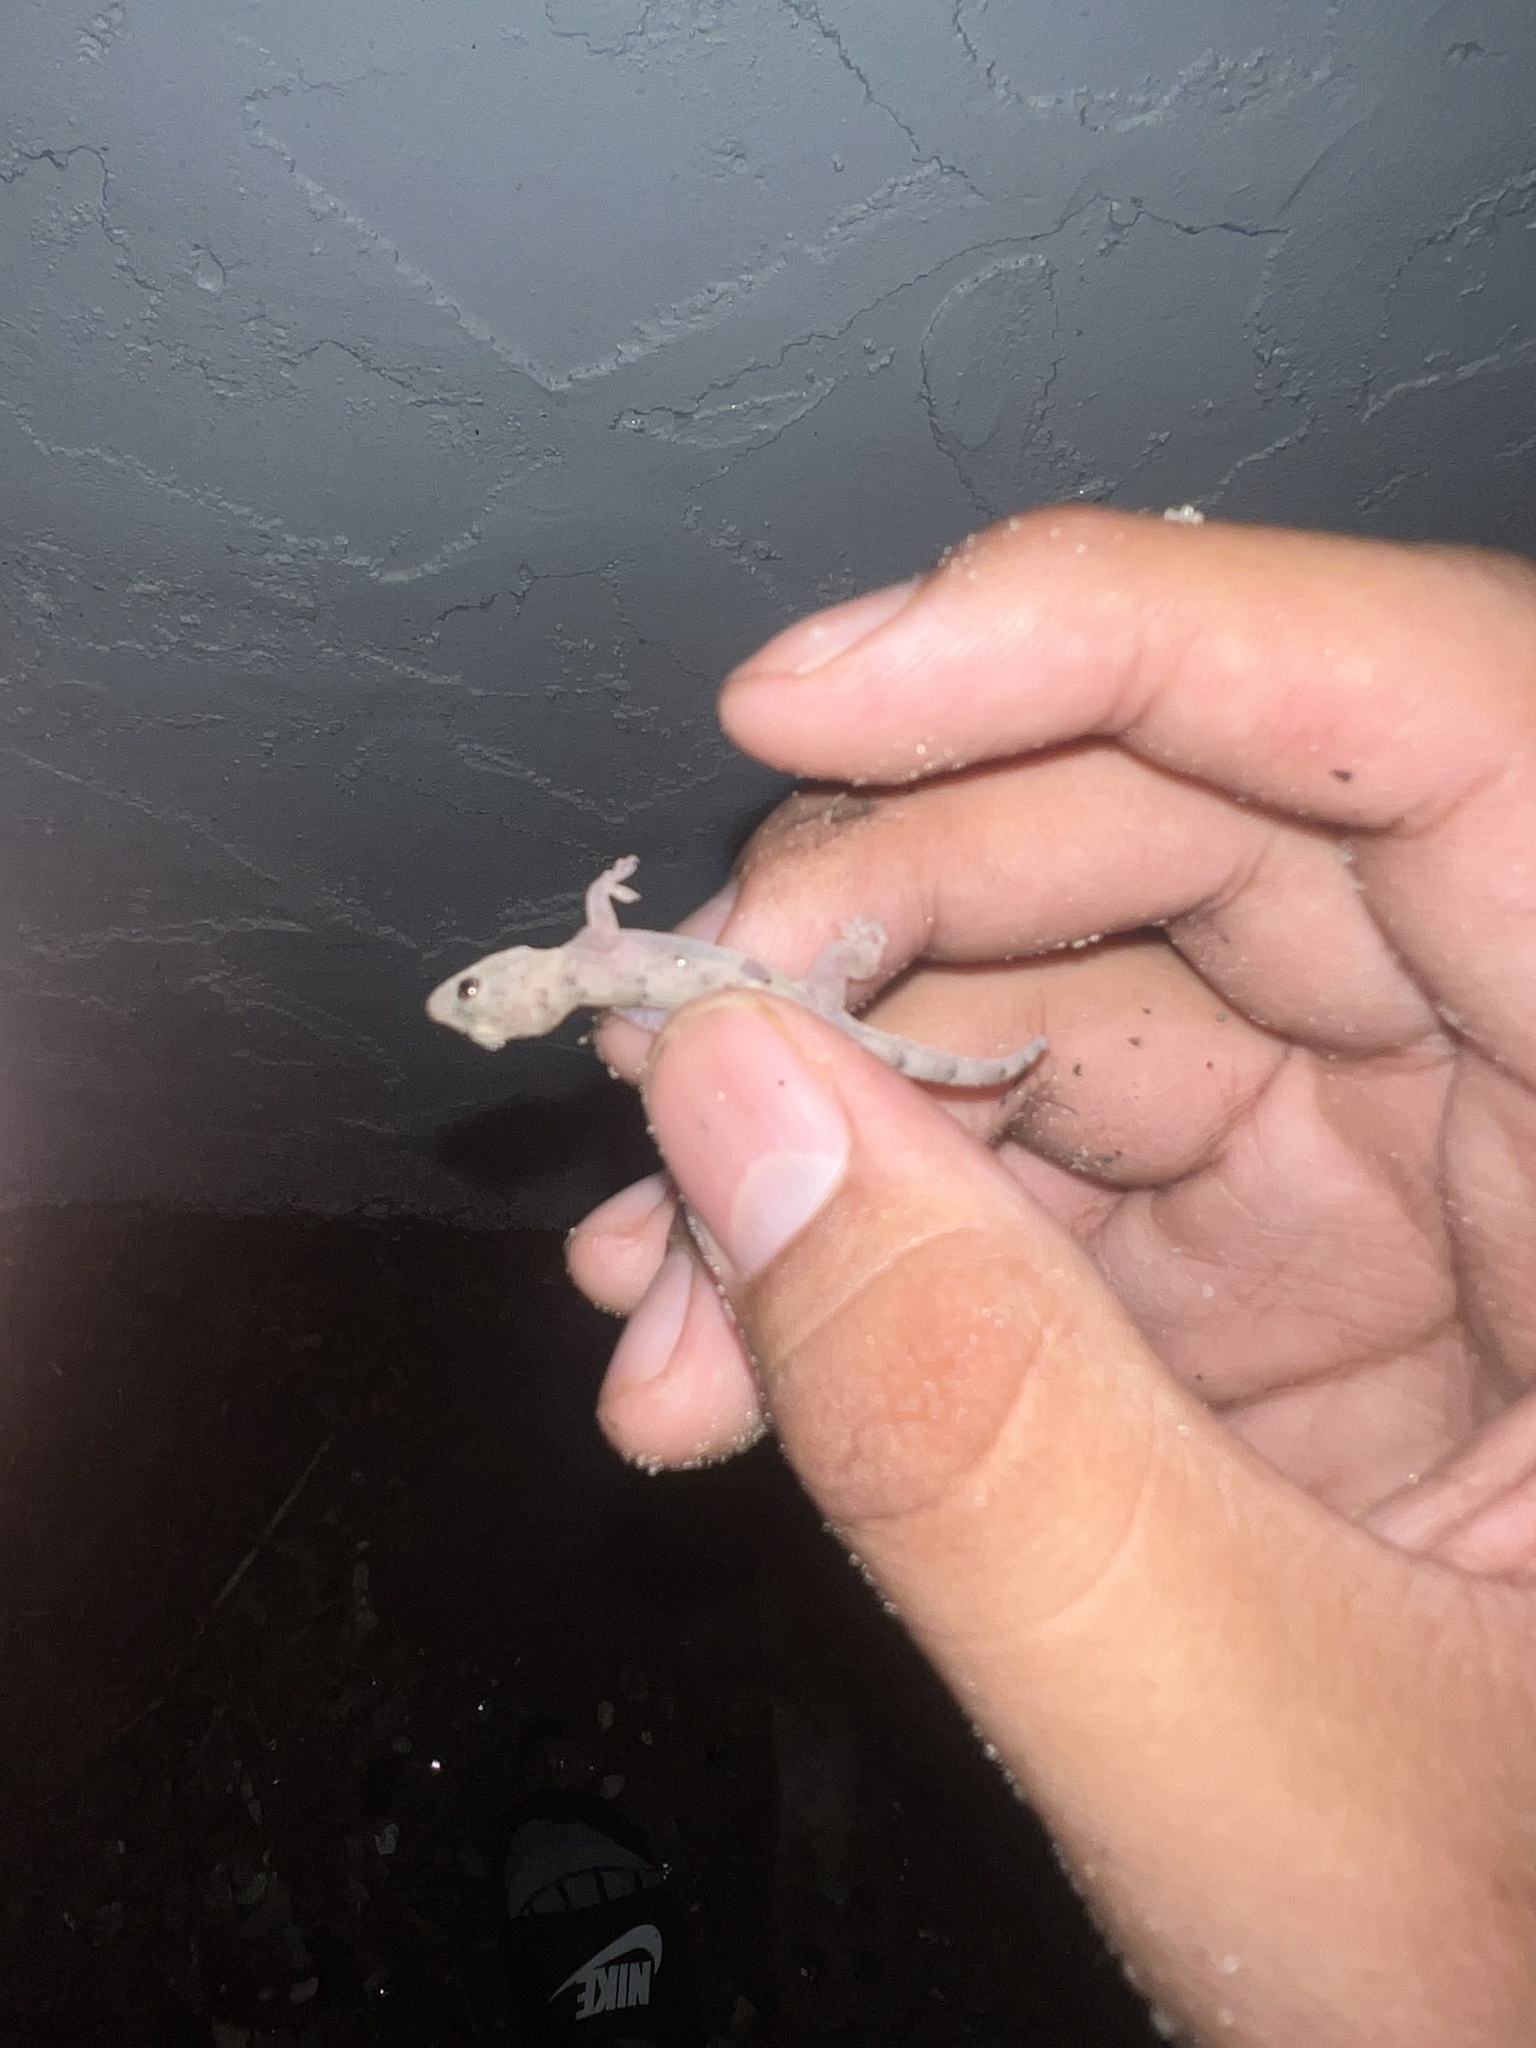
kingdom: Animalia
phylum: Chordata
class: Squamata
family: Gekkonidae
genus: Hemidactylus
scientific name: Hemidactylus mabouia
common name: House gecko
